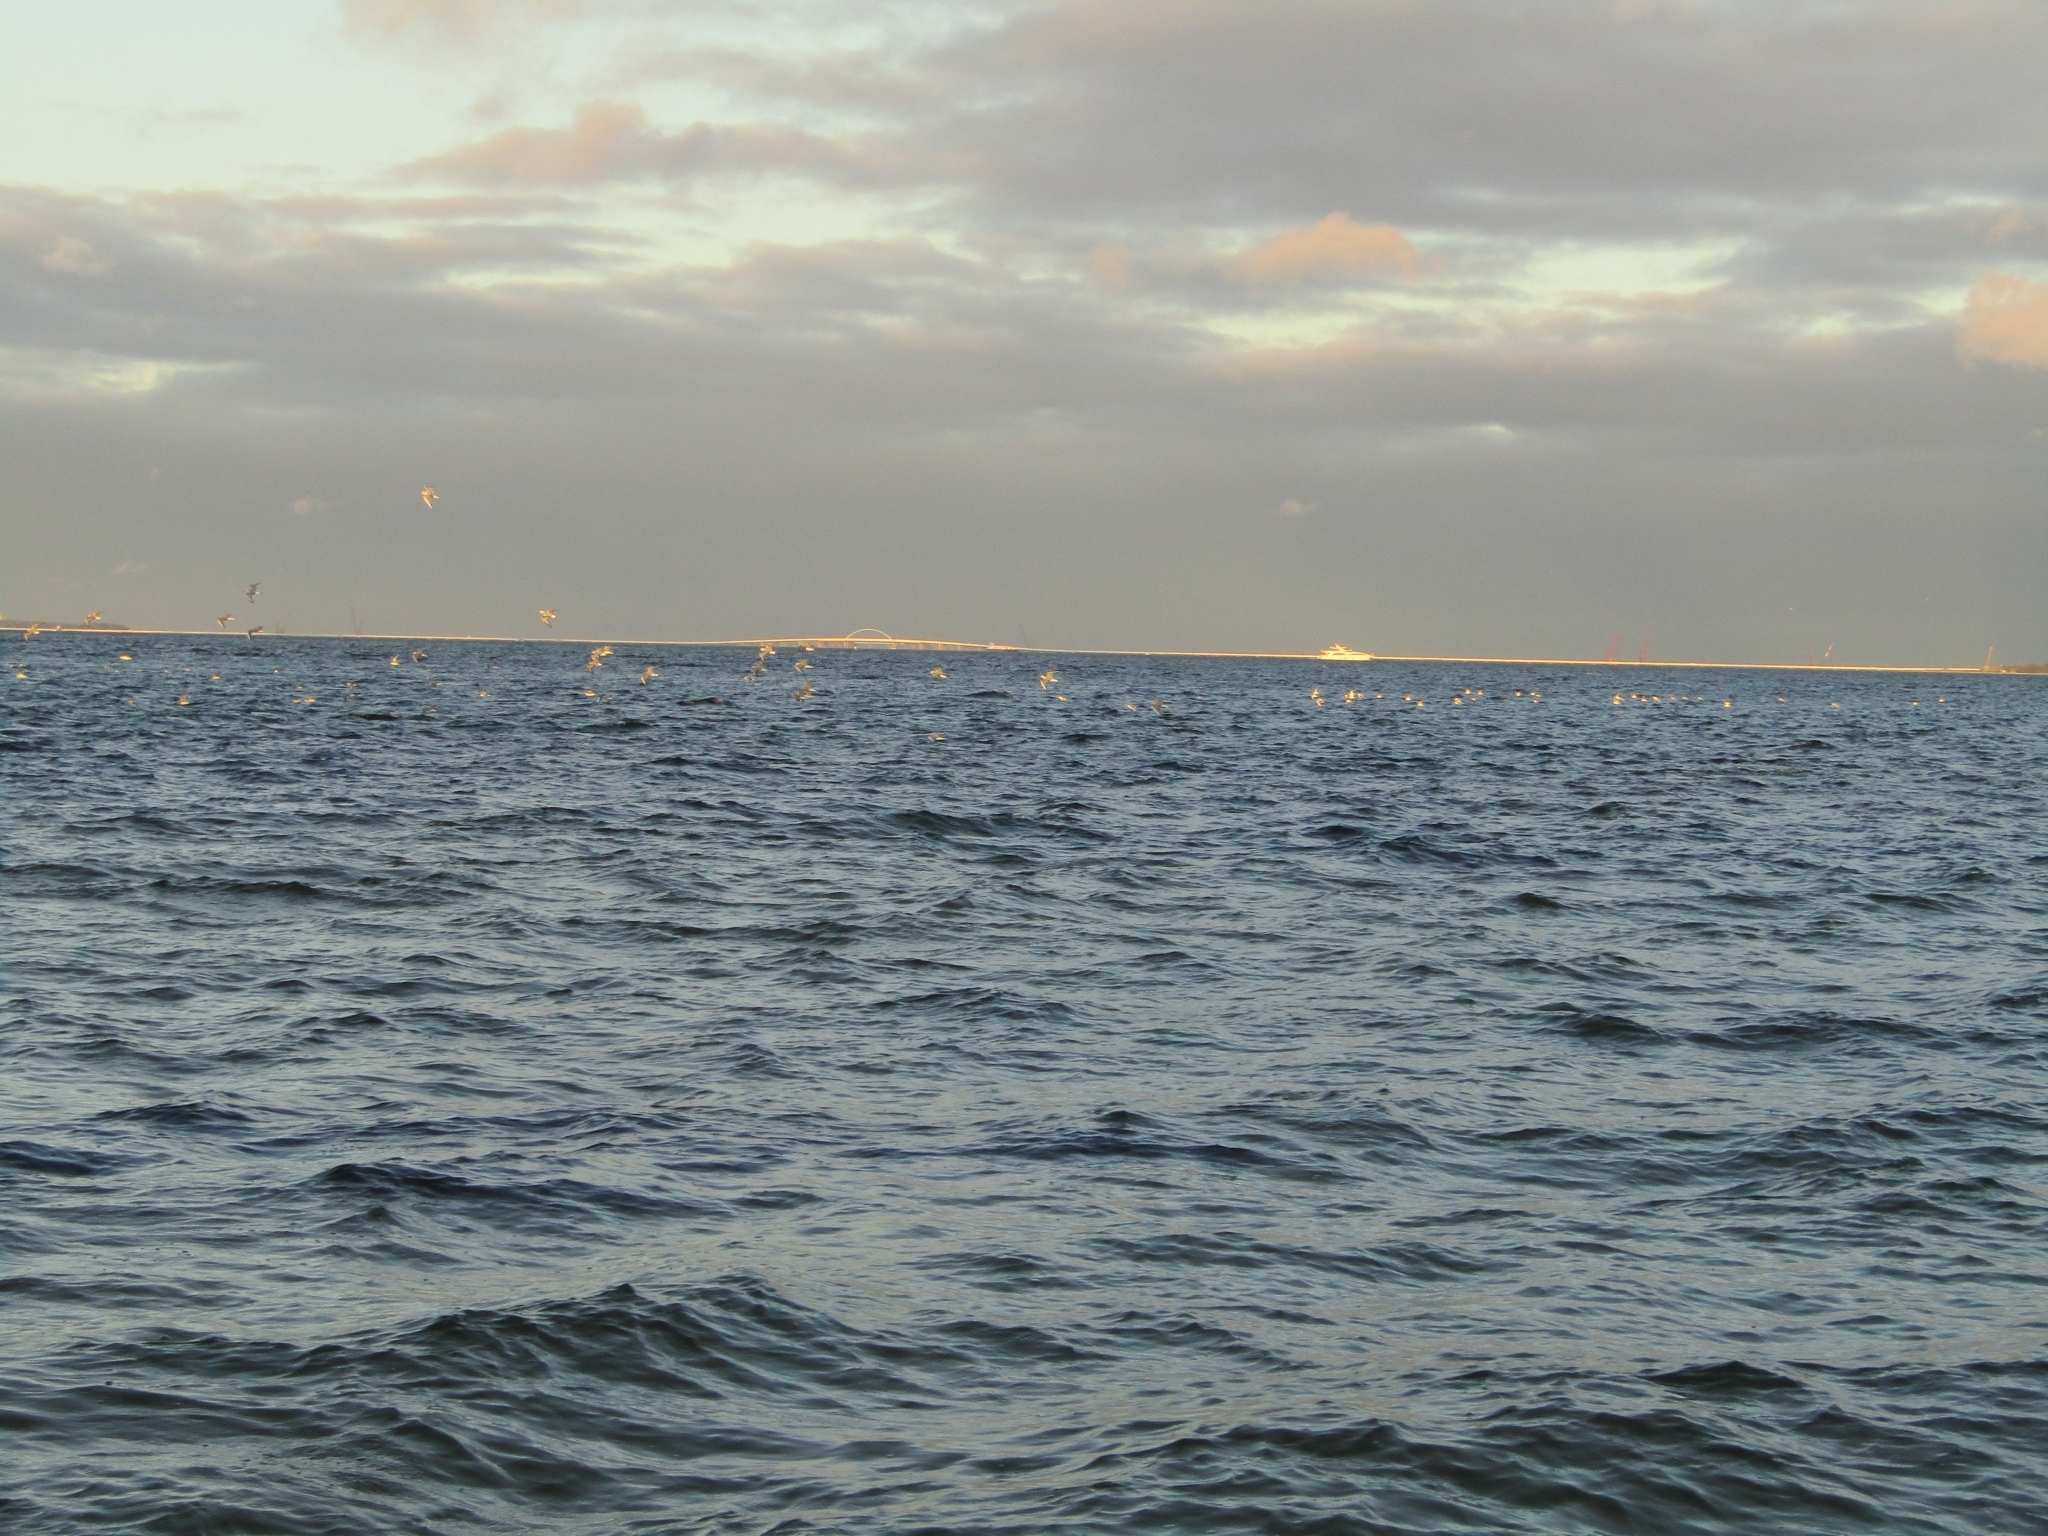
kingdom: Animalia
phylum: Chordata
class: Aves
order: Charadriiformes
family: Laridae
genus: Chroicocephalus
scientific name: Chroicocephalus philadelphia
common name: Bonaparte's gull
